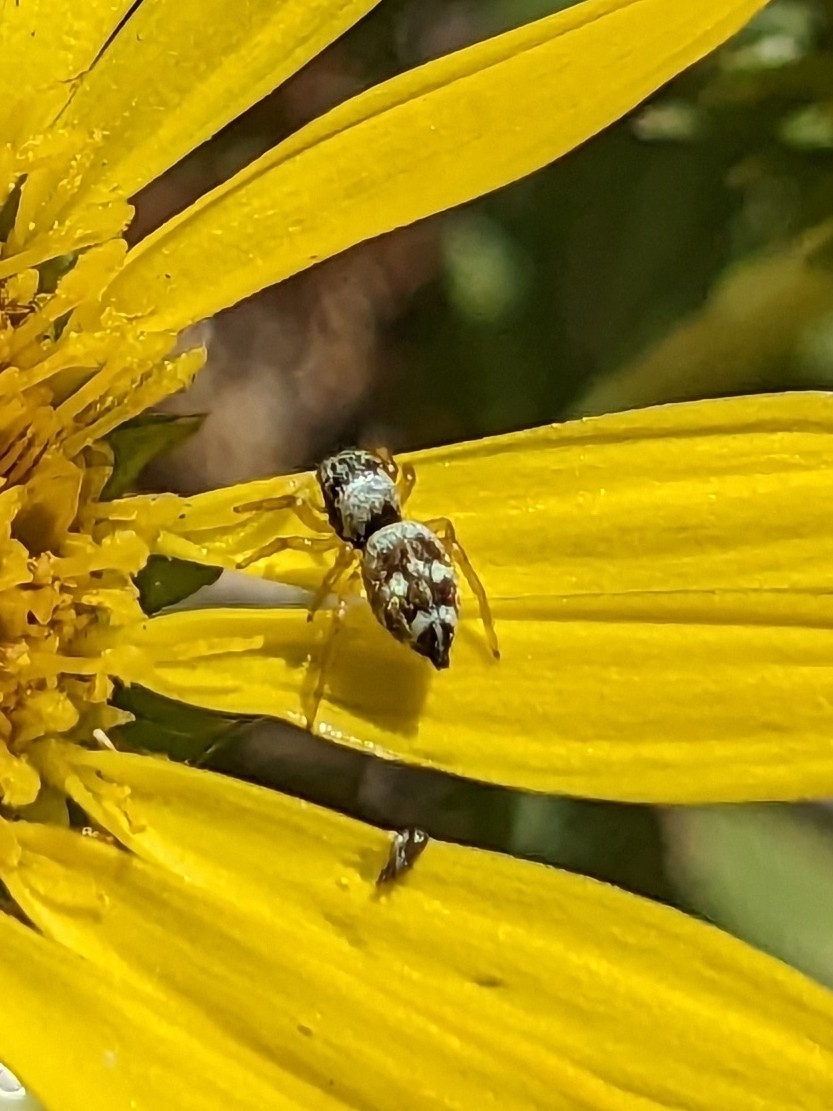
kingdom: Animalia
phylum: Arthropoda
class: Arachnida
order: Araneae
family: Salticidae
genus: Heliophanus
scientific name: Heliophanus apiatus
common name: Sun jumping spider
